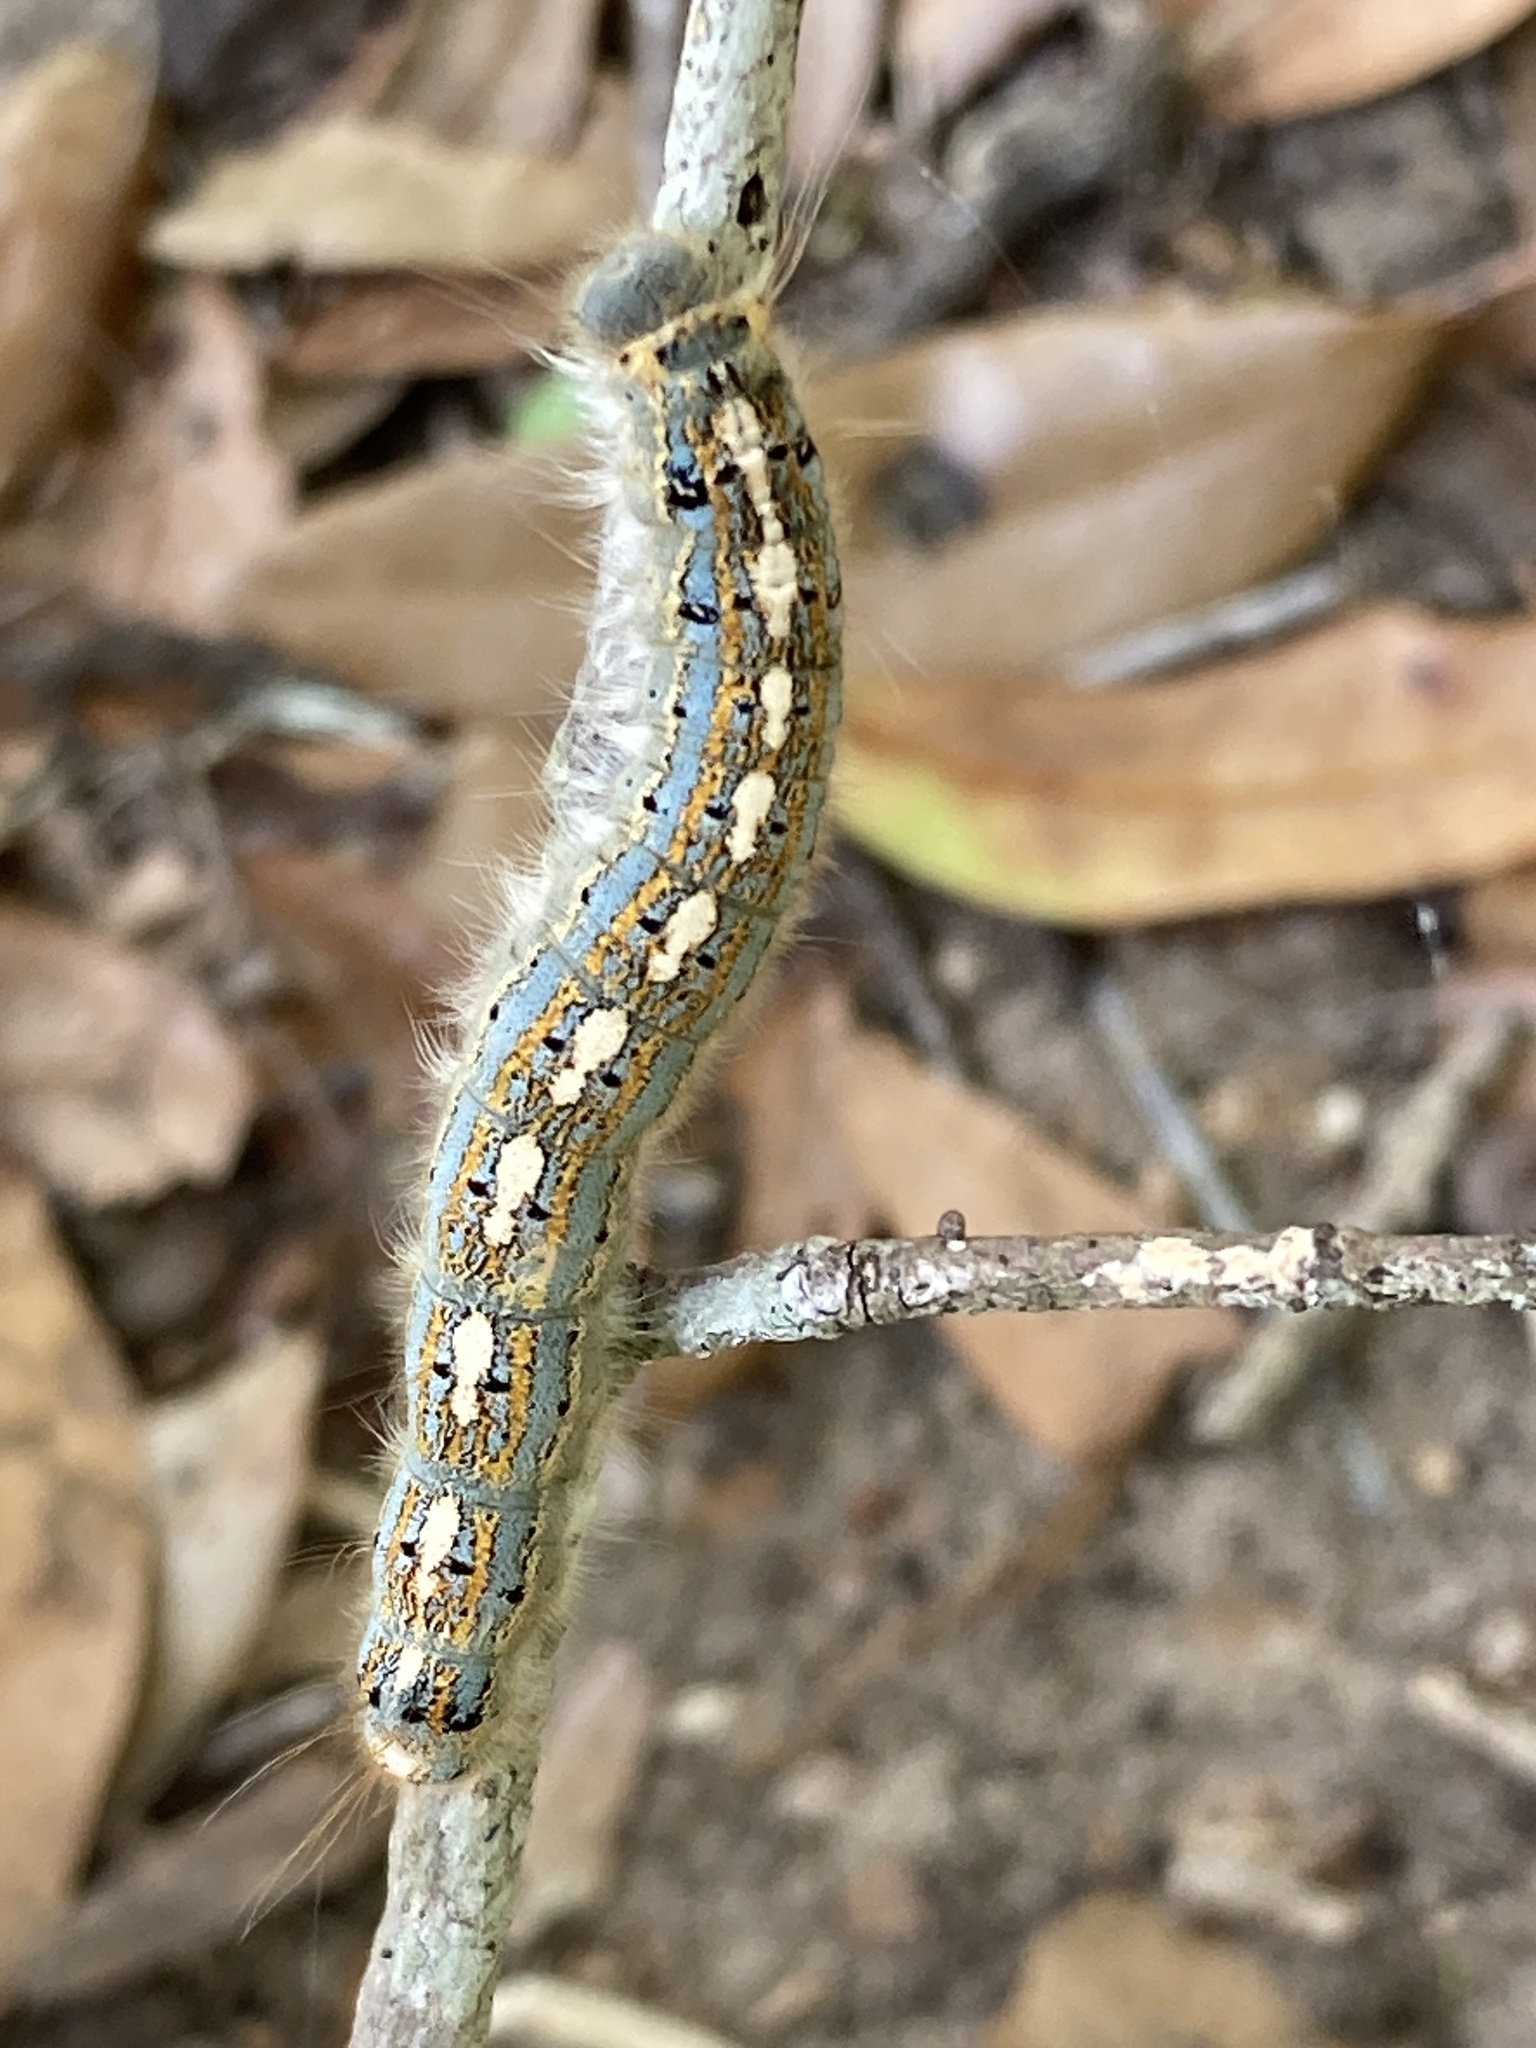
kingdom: Animalia
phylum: Arthropoda
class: Insecta
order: Lepidoptera
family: Lasiocampidae
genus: Malacosoma
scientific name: Malacosoma disstria
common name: Forest tent caterpillar
